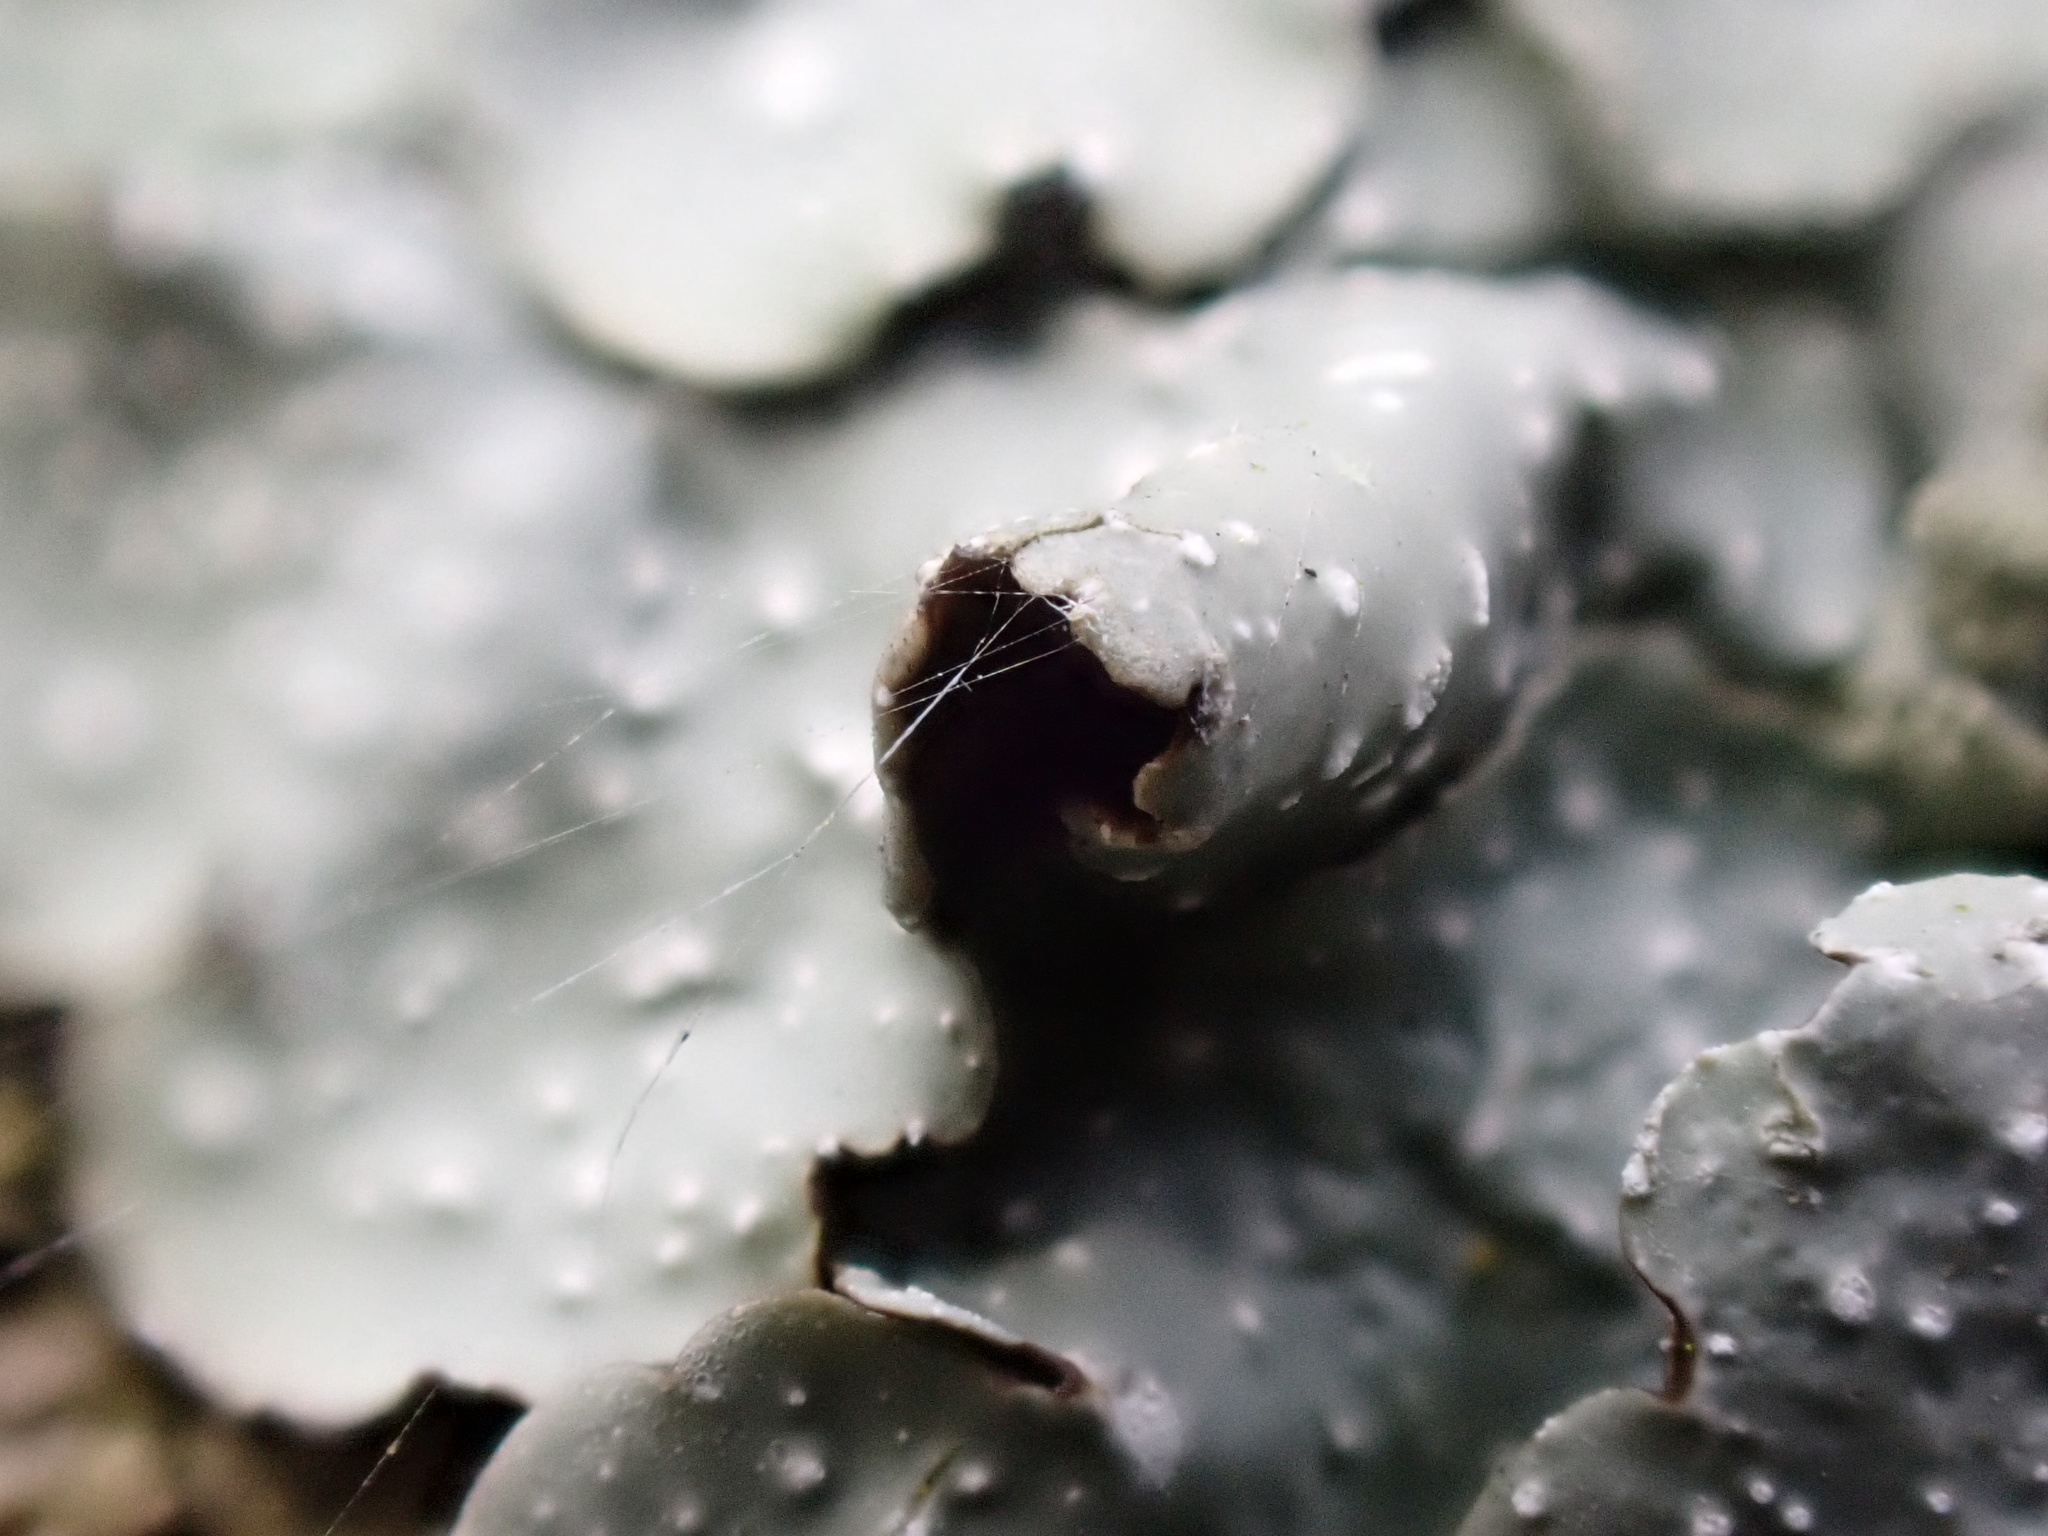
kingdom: Fungi
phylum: Ascomycota
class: Lecanoromycetes
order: Lecanorales
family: Parmeliaceae
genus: Punctelia
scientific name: Punctelia borreri
